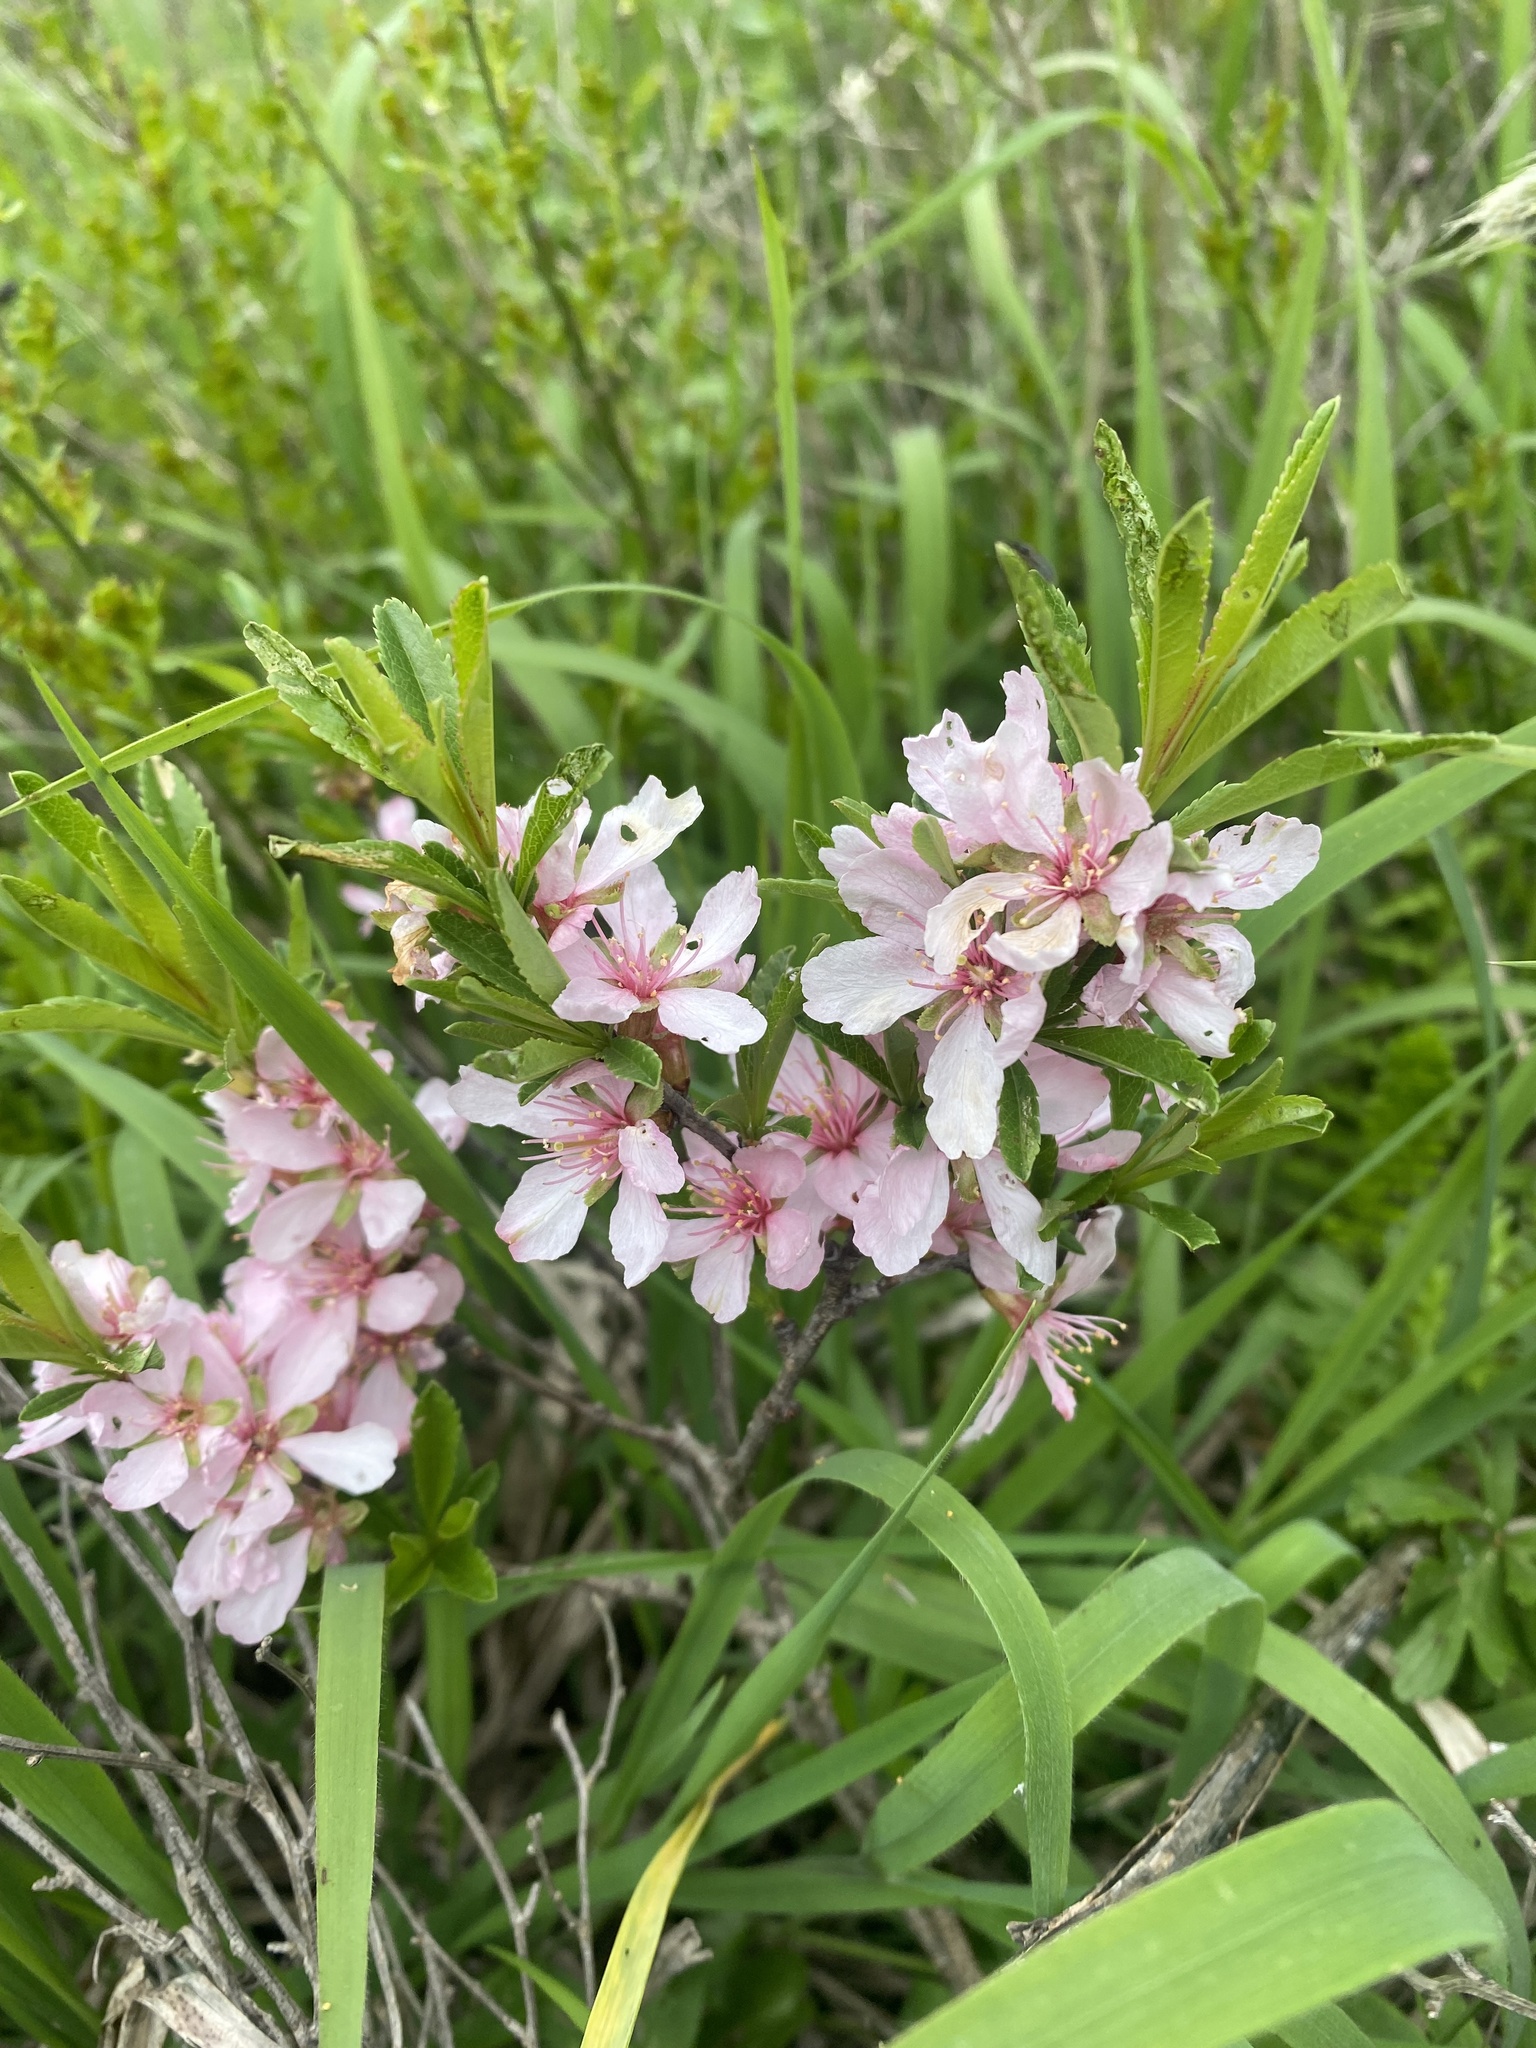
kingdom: Plantae
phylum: Tracheophyta
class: Magnoliopsida
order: Rosales
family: Rosaceae
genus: Prunus
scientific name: Prunus tenella
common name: Dwarf russian almond
